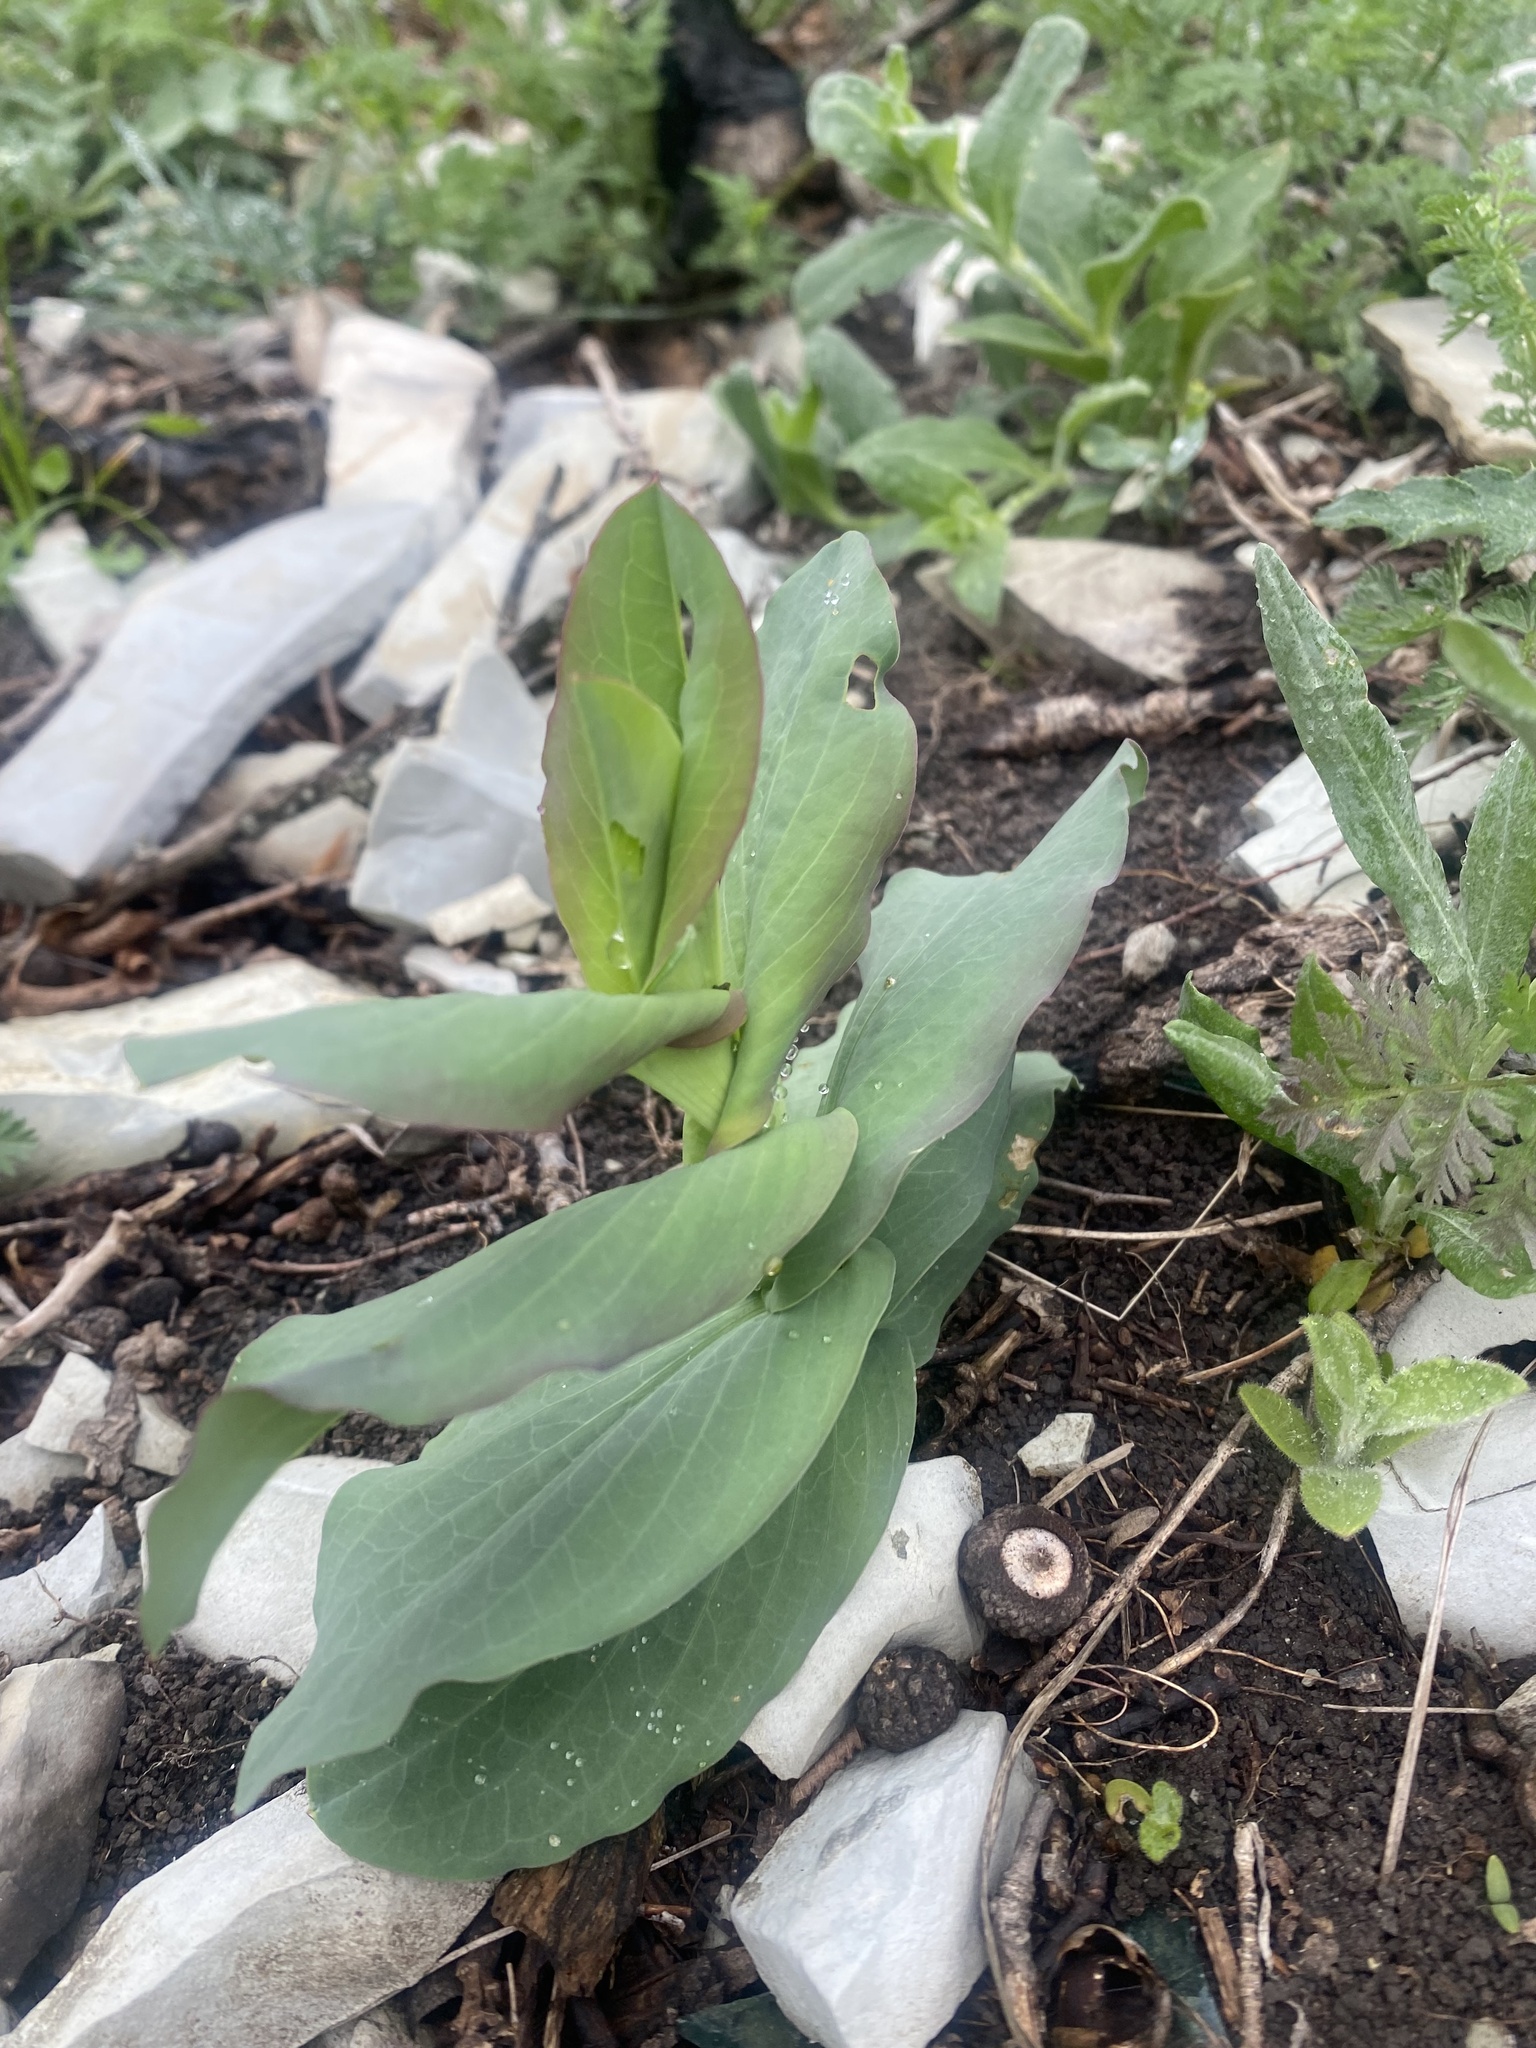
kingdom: Plantae
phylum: Tracheophyta
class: Magnoliopsida
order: Apiales
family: Apiaceae
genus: Bupleurum
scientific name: Bupleurum rotundifolium
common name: Thorow-wax
